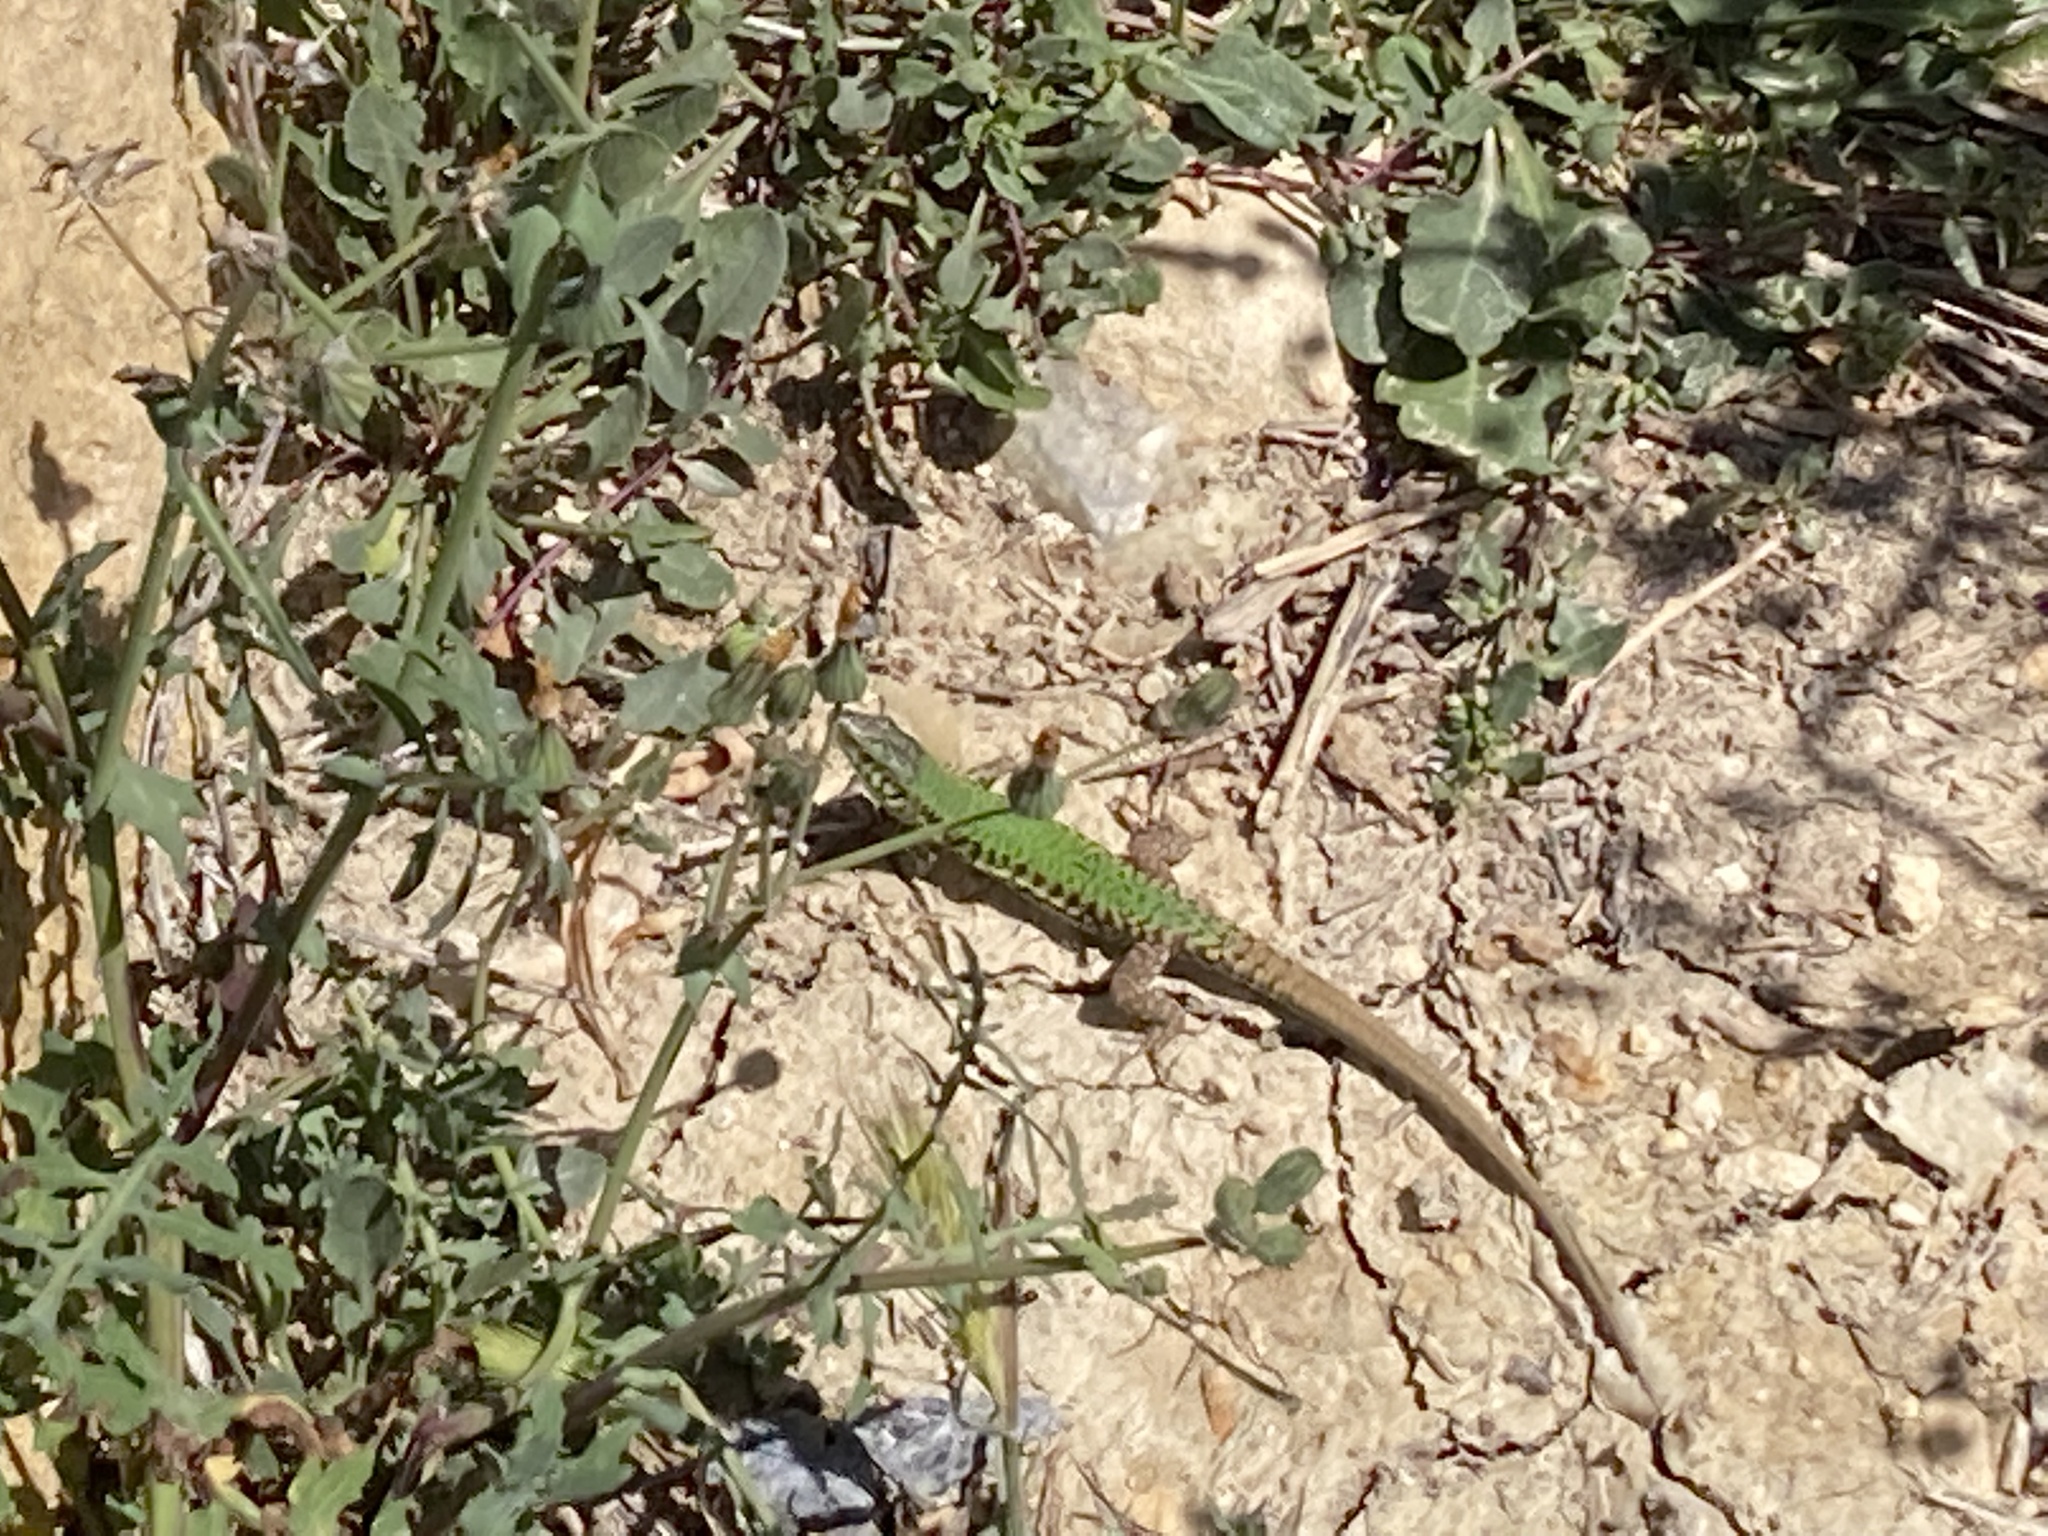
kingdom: Animalia
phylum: Chordata
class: Squamata
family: Lacertidae
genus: Podarcis
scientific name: Podarcis filfolensis
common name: Maltese wall lizard
